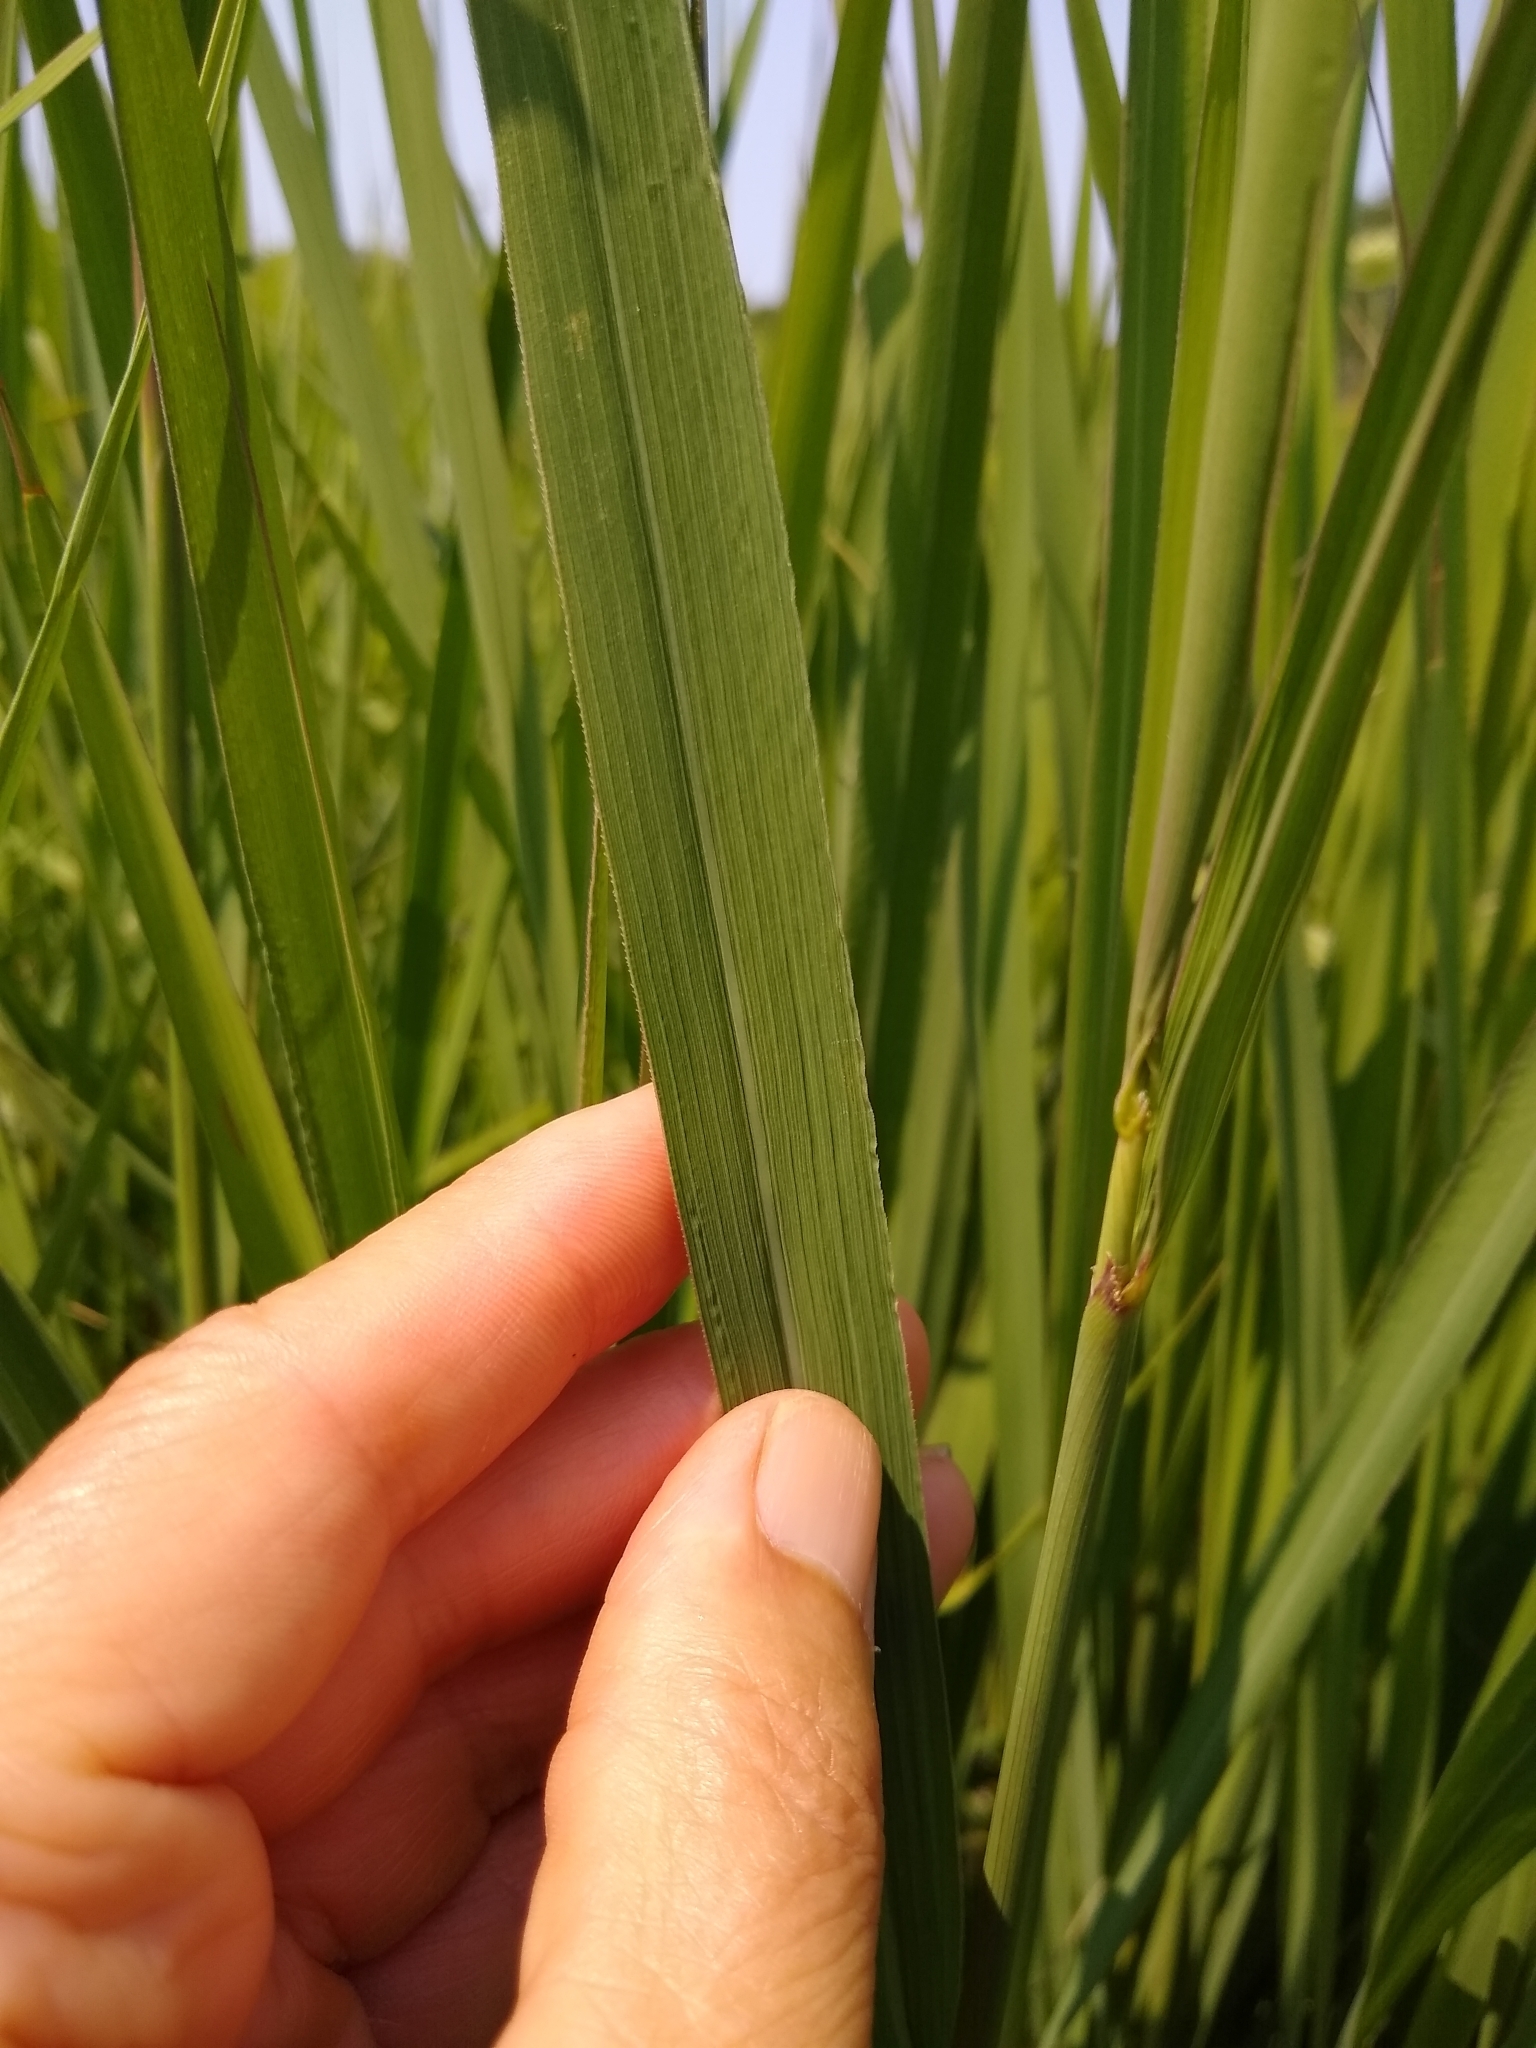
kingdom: Plantae
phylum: Tracheophyta
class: Liliopsida
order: Poales
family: Poaceae
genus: Sorghastrum
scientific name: Sorghastrum nutans
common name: Indian grass
